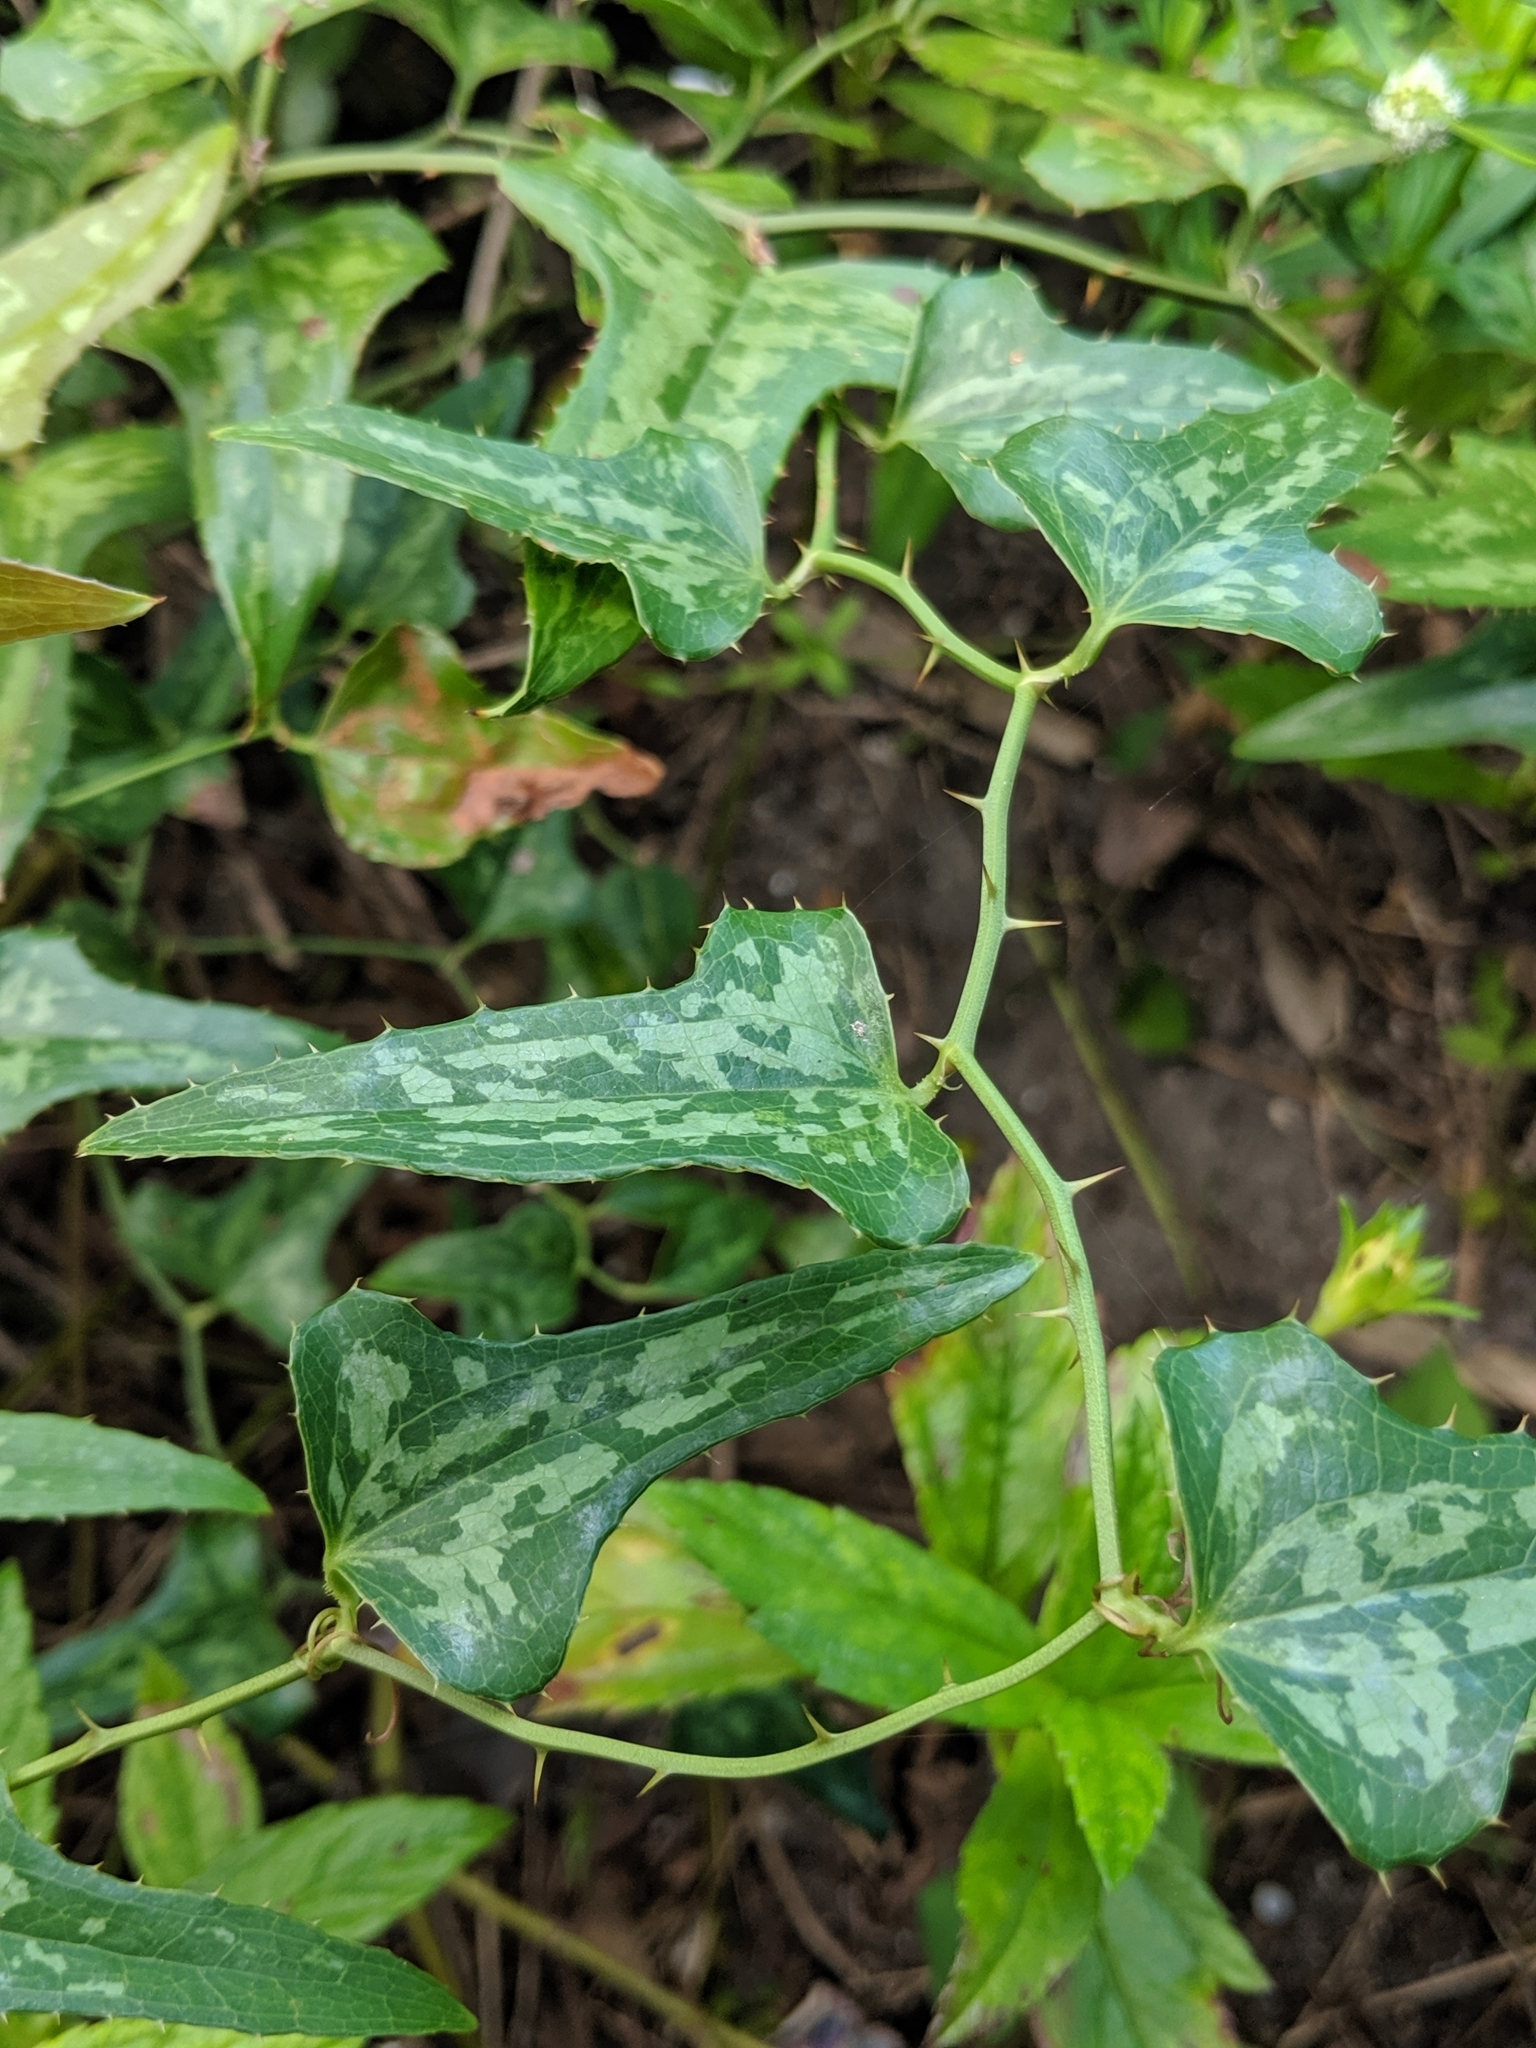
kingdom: Plantae
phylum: Tracheophyta
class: Liliopsida
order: Liliales
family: Smilacaceae
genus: Smilax
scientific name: Smilax bona-nox
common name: Catbrier
